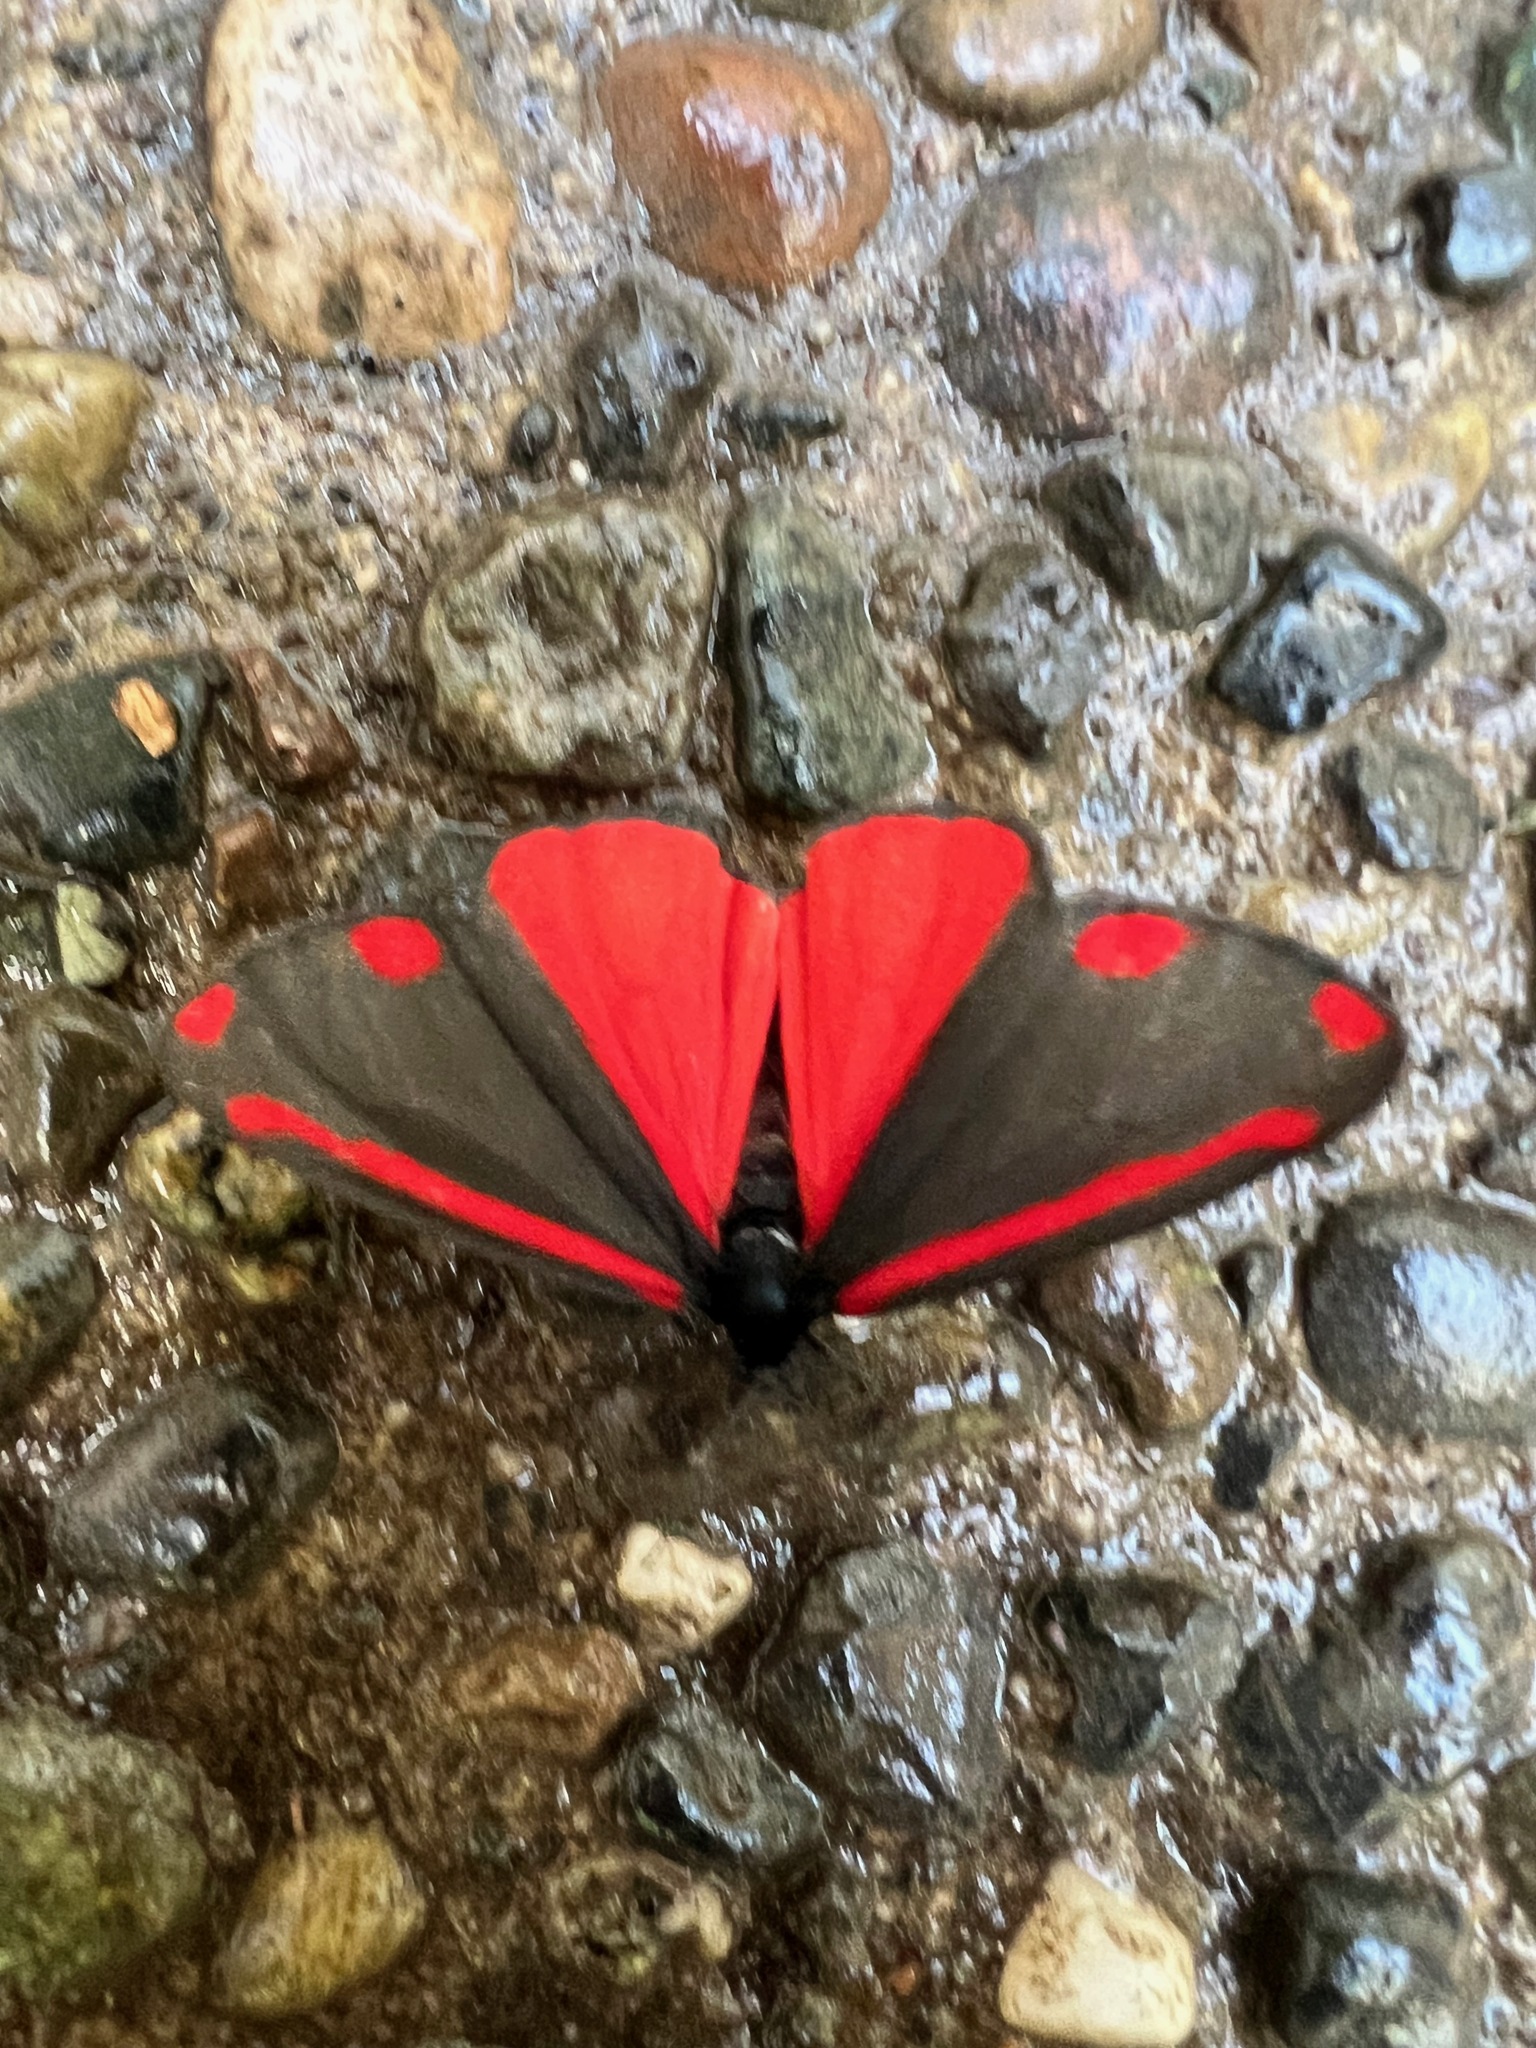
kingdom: Animalia
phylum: Arthropoda
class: Insecta
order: Lepidoptera
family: Erebidae
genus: Tyria
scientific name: Tyria jacobaeae
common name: Cinnabar
